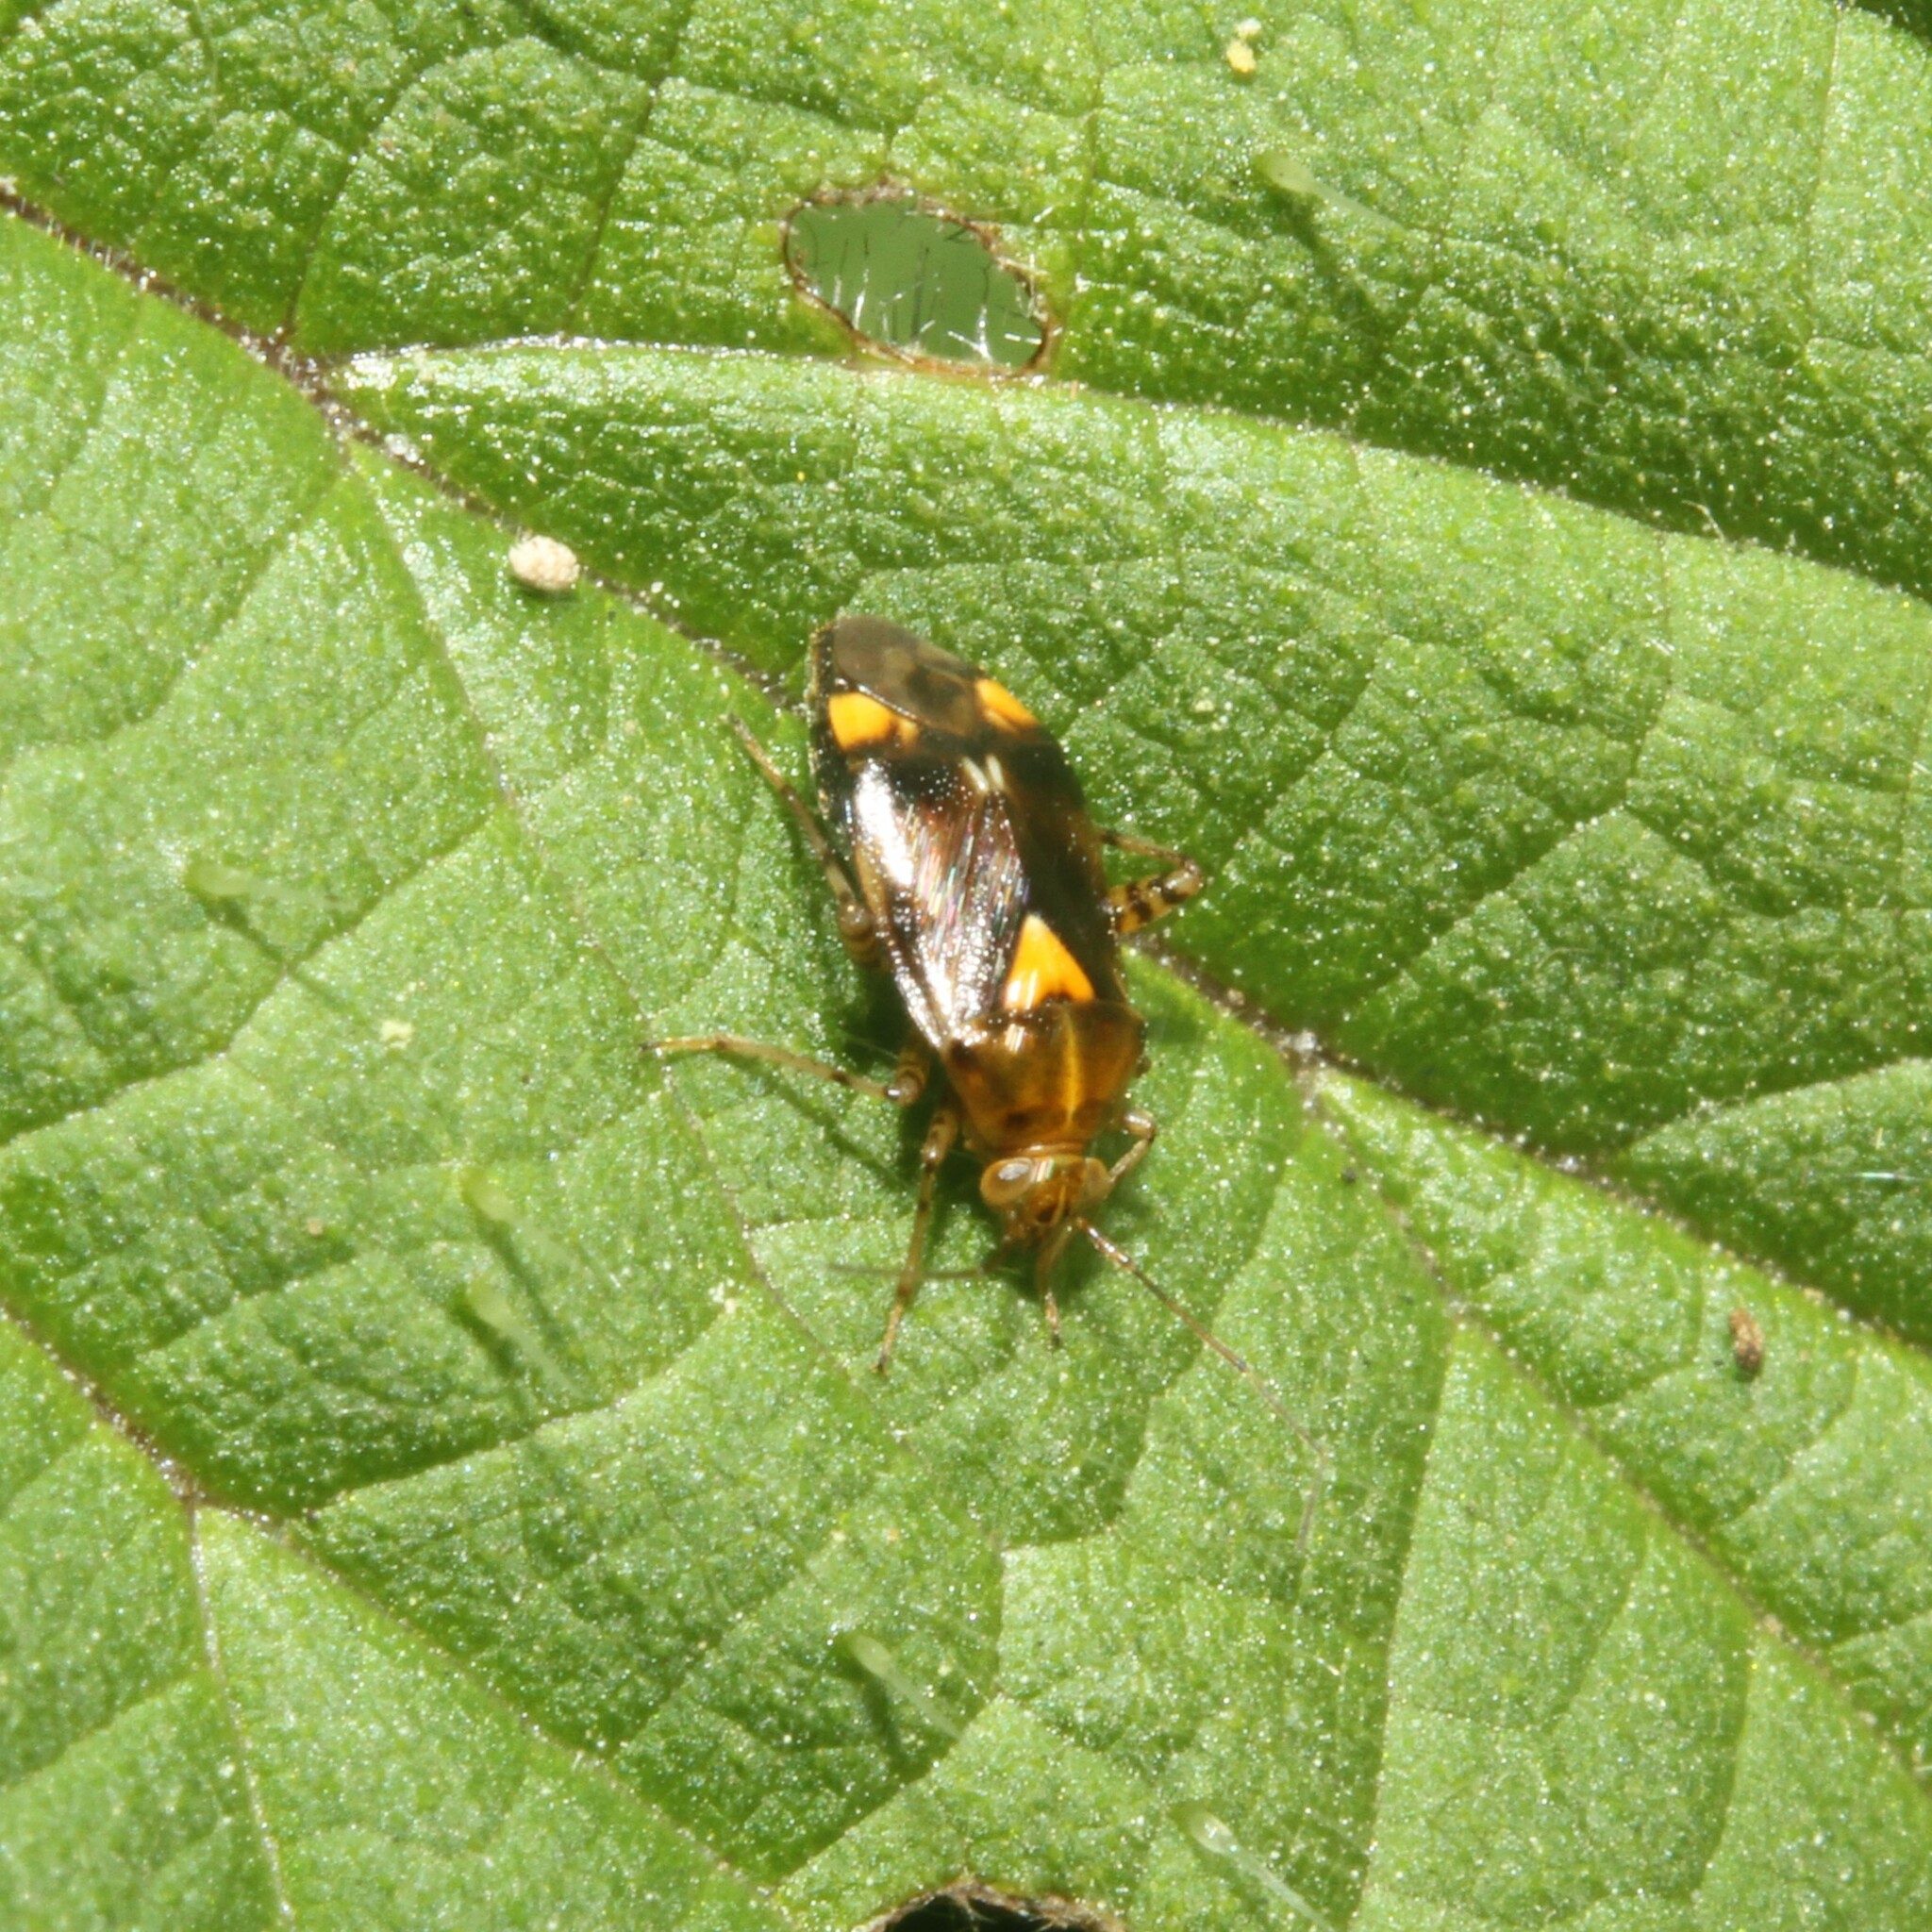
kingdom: Animalia
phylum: Arthropoda
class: Insecta
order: Hemiptera
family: Miridae
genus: Liocoris
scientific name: Liocoris tripustulatus
